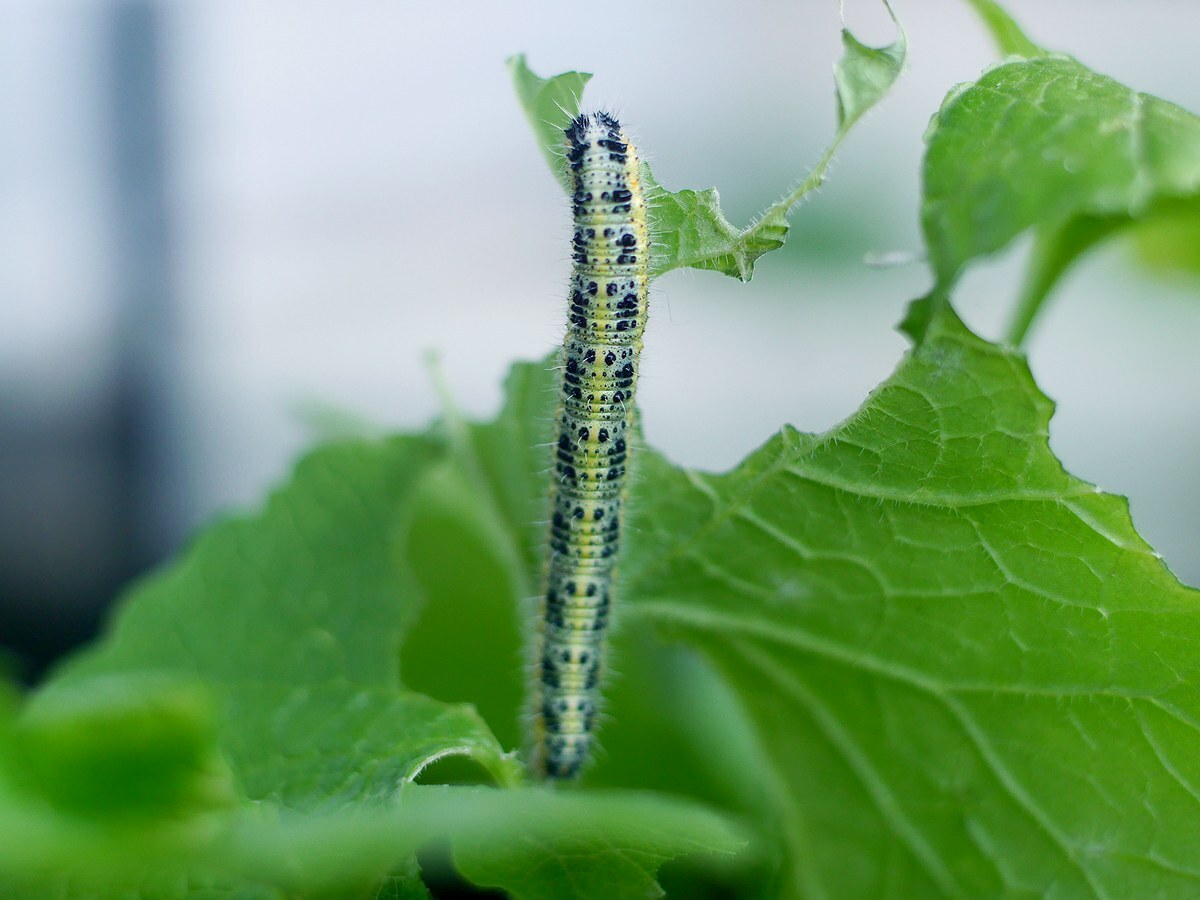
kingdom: Animalia
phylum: Arthropoda
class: Insecta
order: Lepidoptera
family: Pieridae
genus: Pieris
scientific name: Pieris brassicae
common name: Large white
